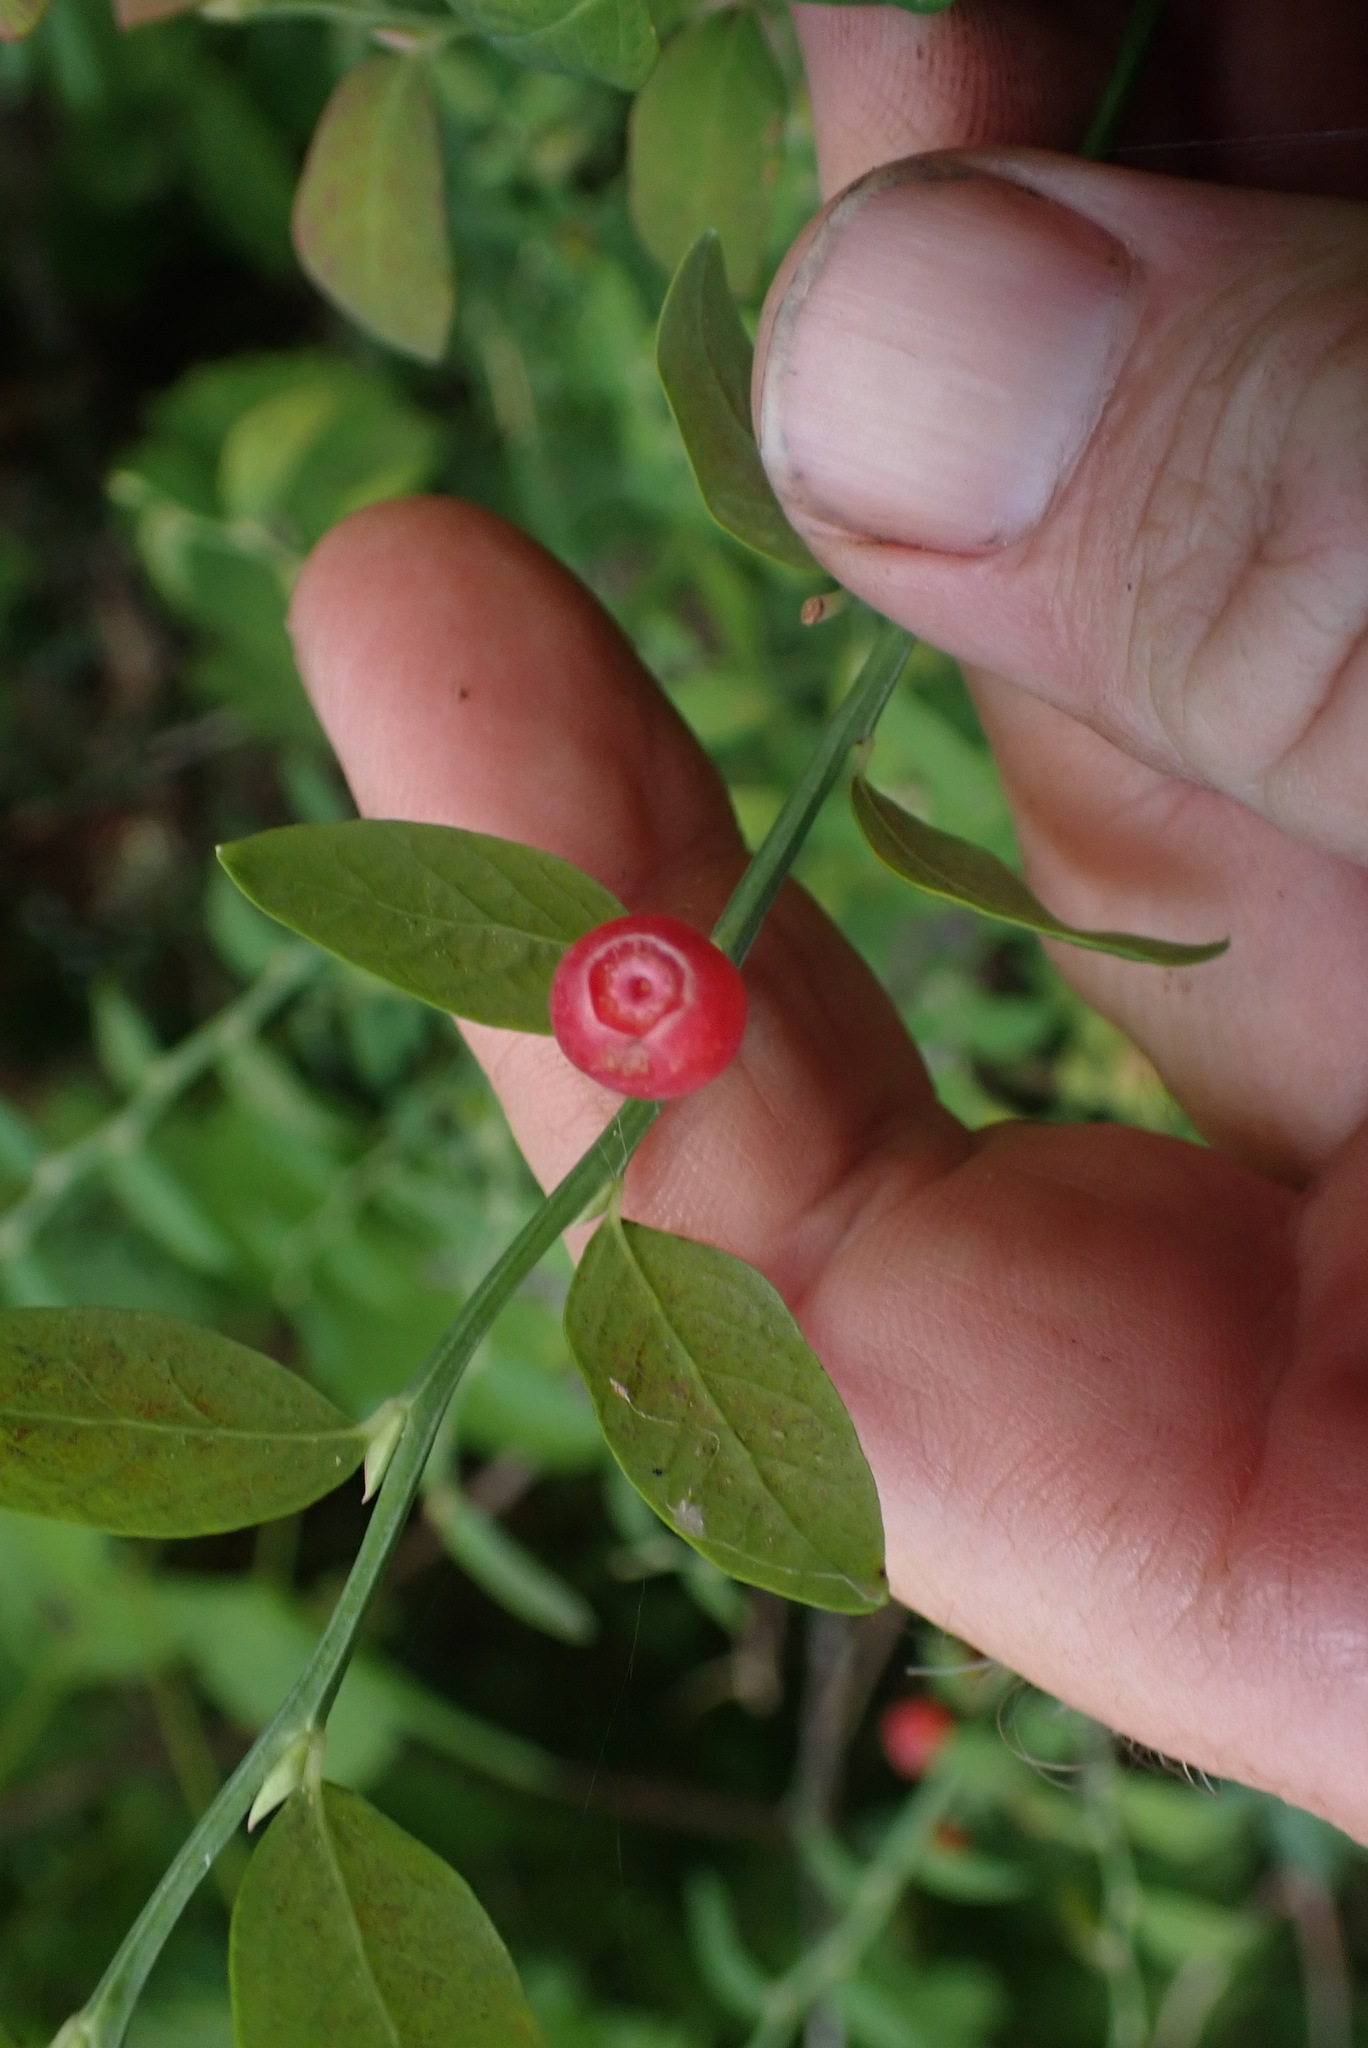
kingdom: Plantae
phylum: Tracheophyta
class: Magnoliopsida
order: Ericales
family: Ericaceae
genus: Vaccinium
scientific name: Vaccinium parvifolium
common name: Red-huckleberry
